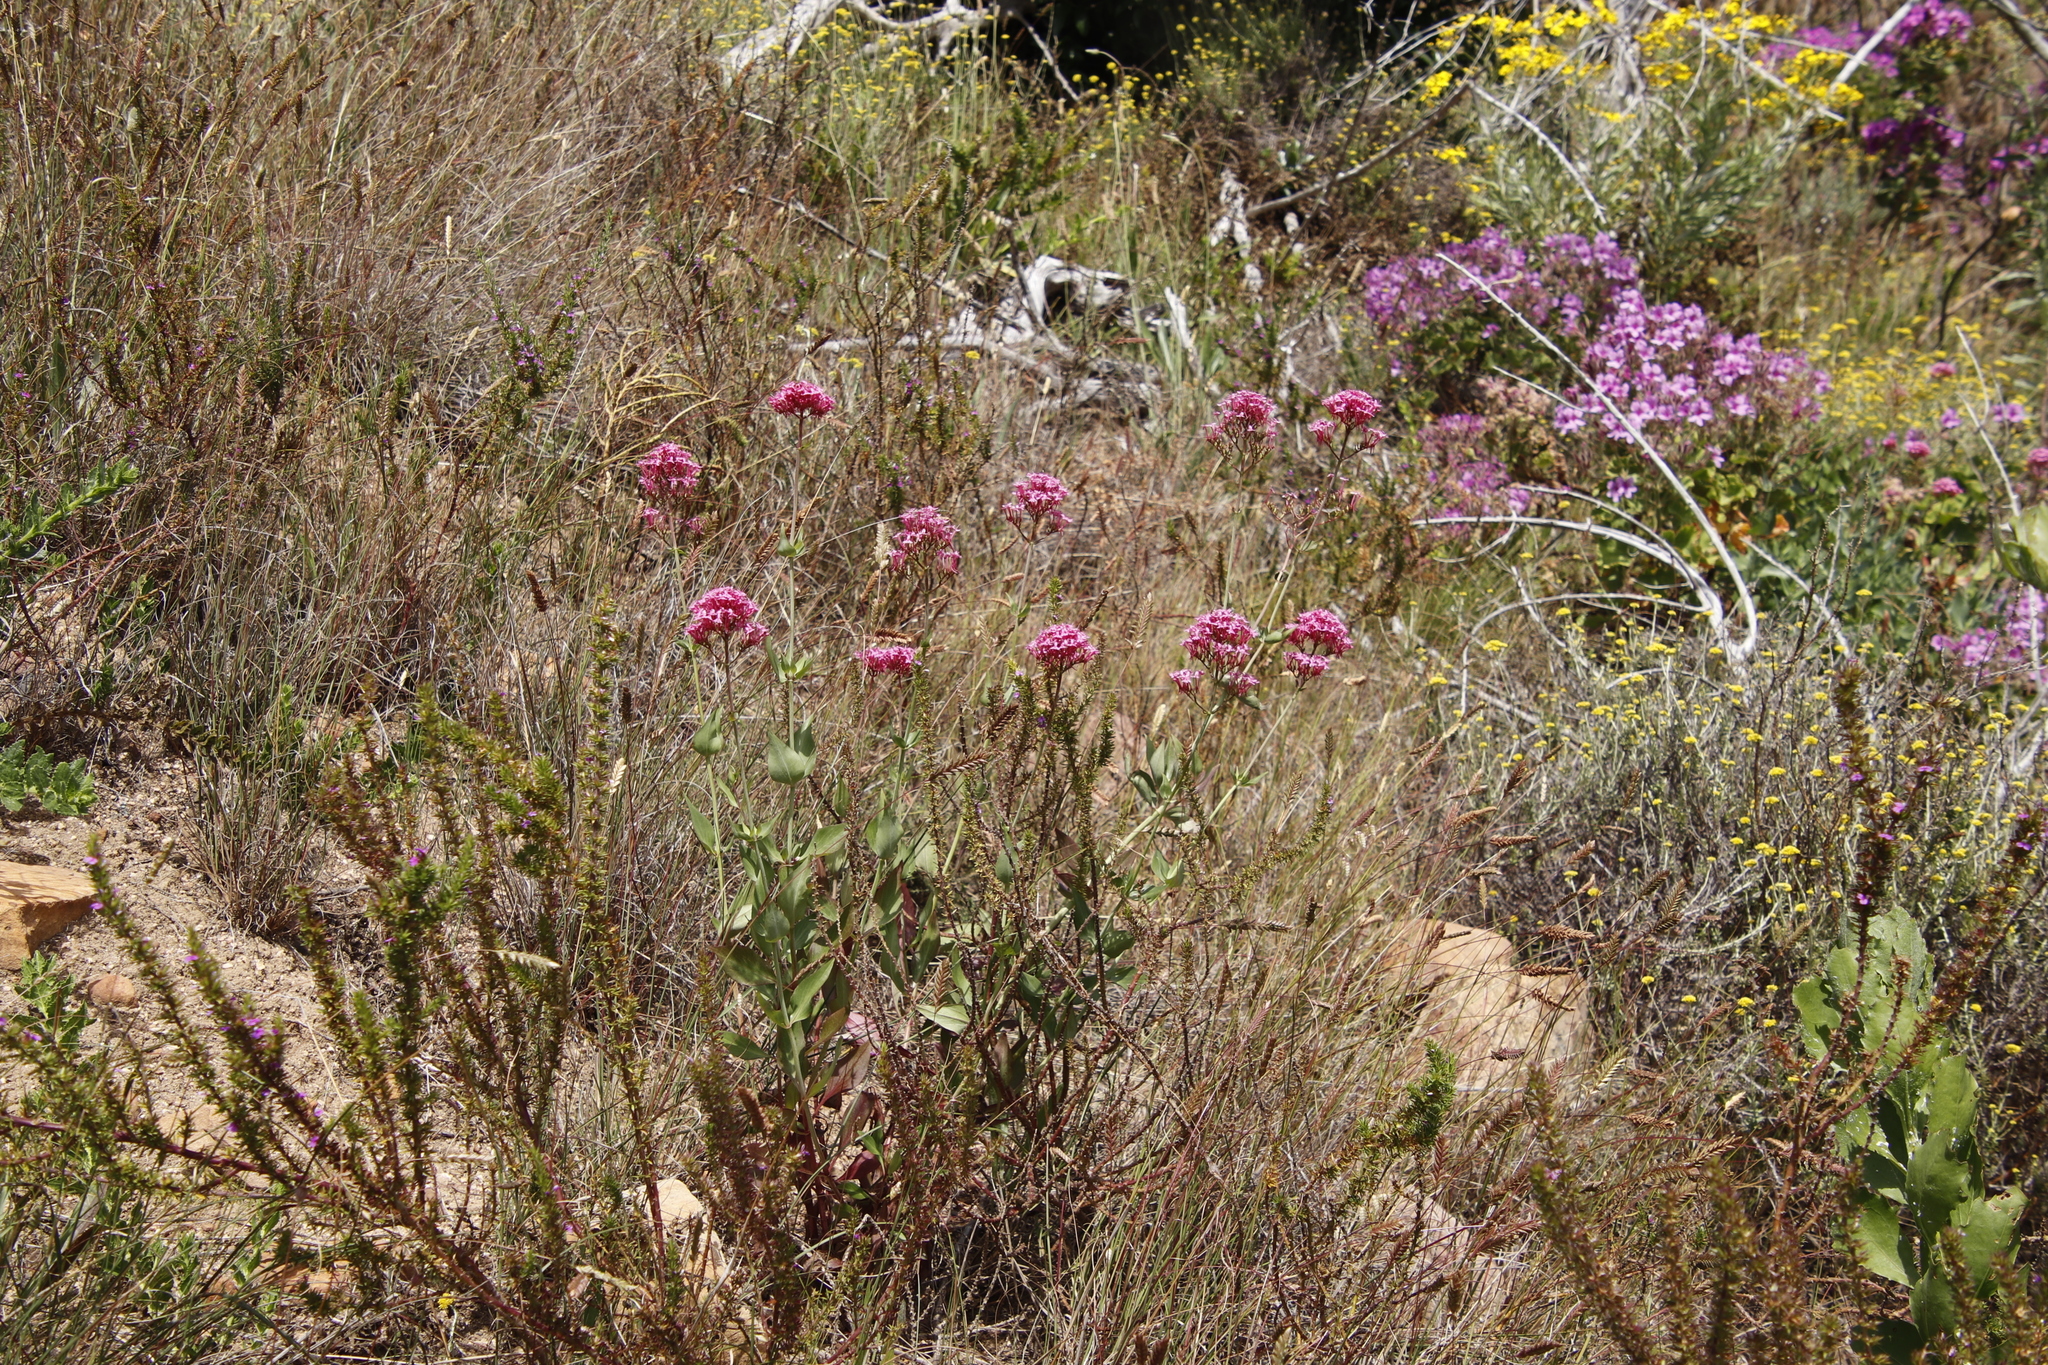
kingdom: Plantae
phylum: Tracheophyta
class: Magnoliopsida
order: Dipsacales
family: Caprifoliaceae
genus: Centranthus
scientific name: Centranthus ruber
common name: Red valerian
